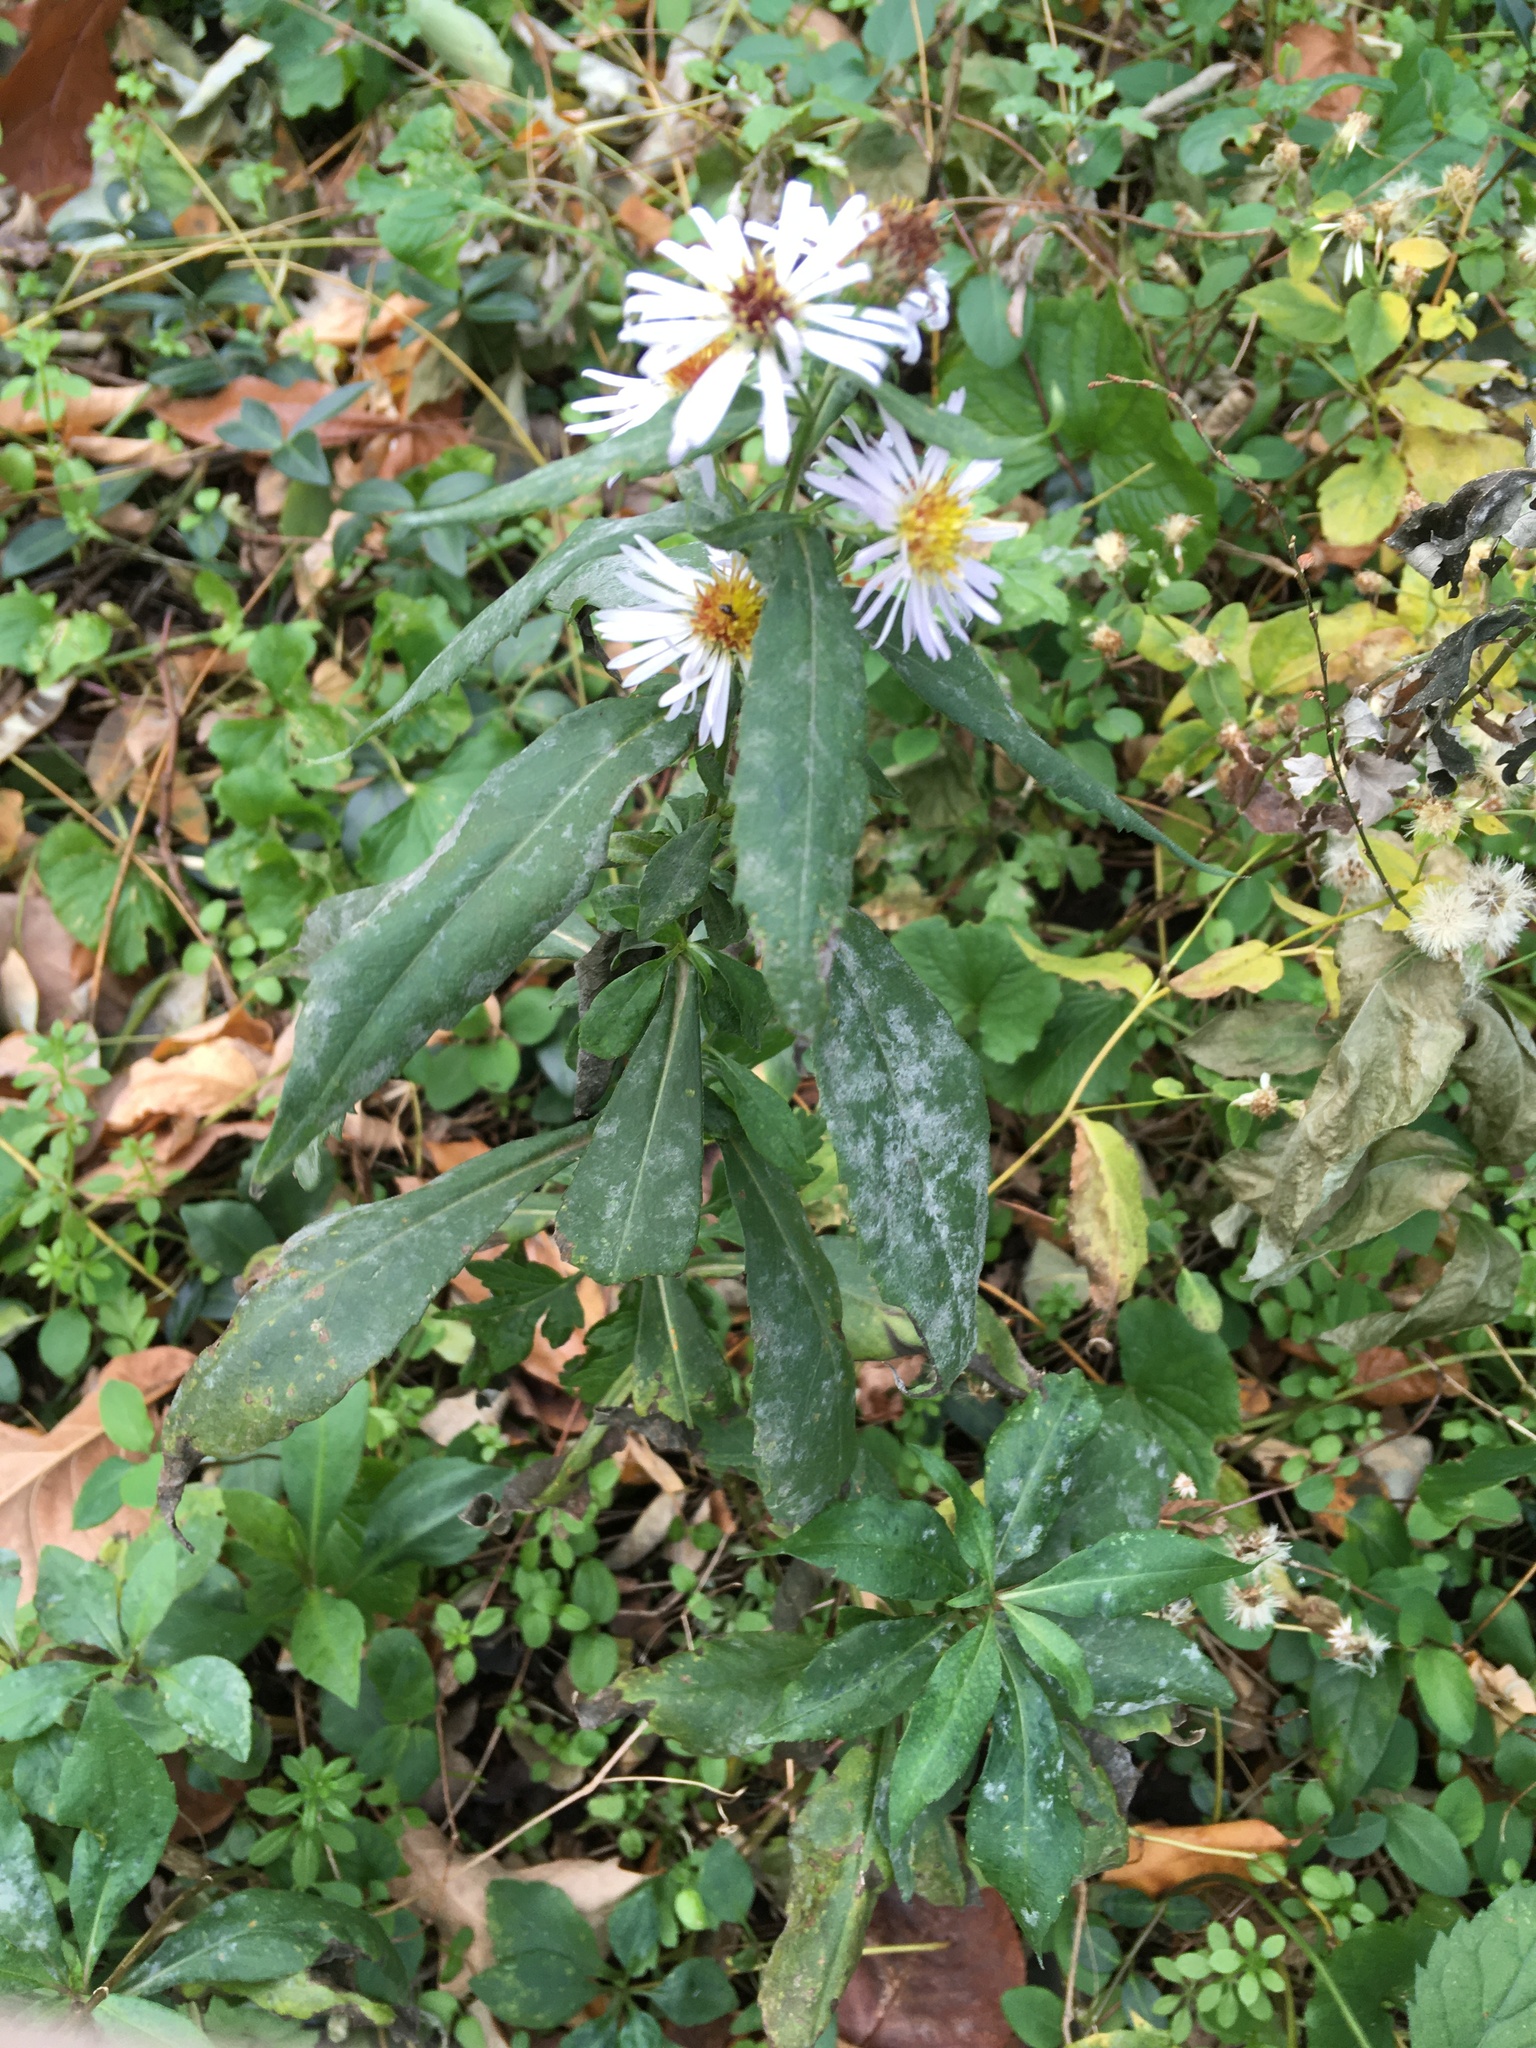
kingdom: Plantae
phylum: Tracheophyta
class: Magnoliopsida
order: Asterales
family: Asteraceae
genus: Symphyotrichum
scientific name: Symphyotrichum lanceolatum
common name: Panicled aster
